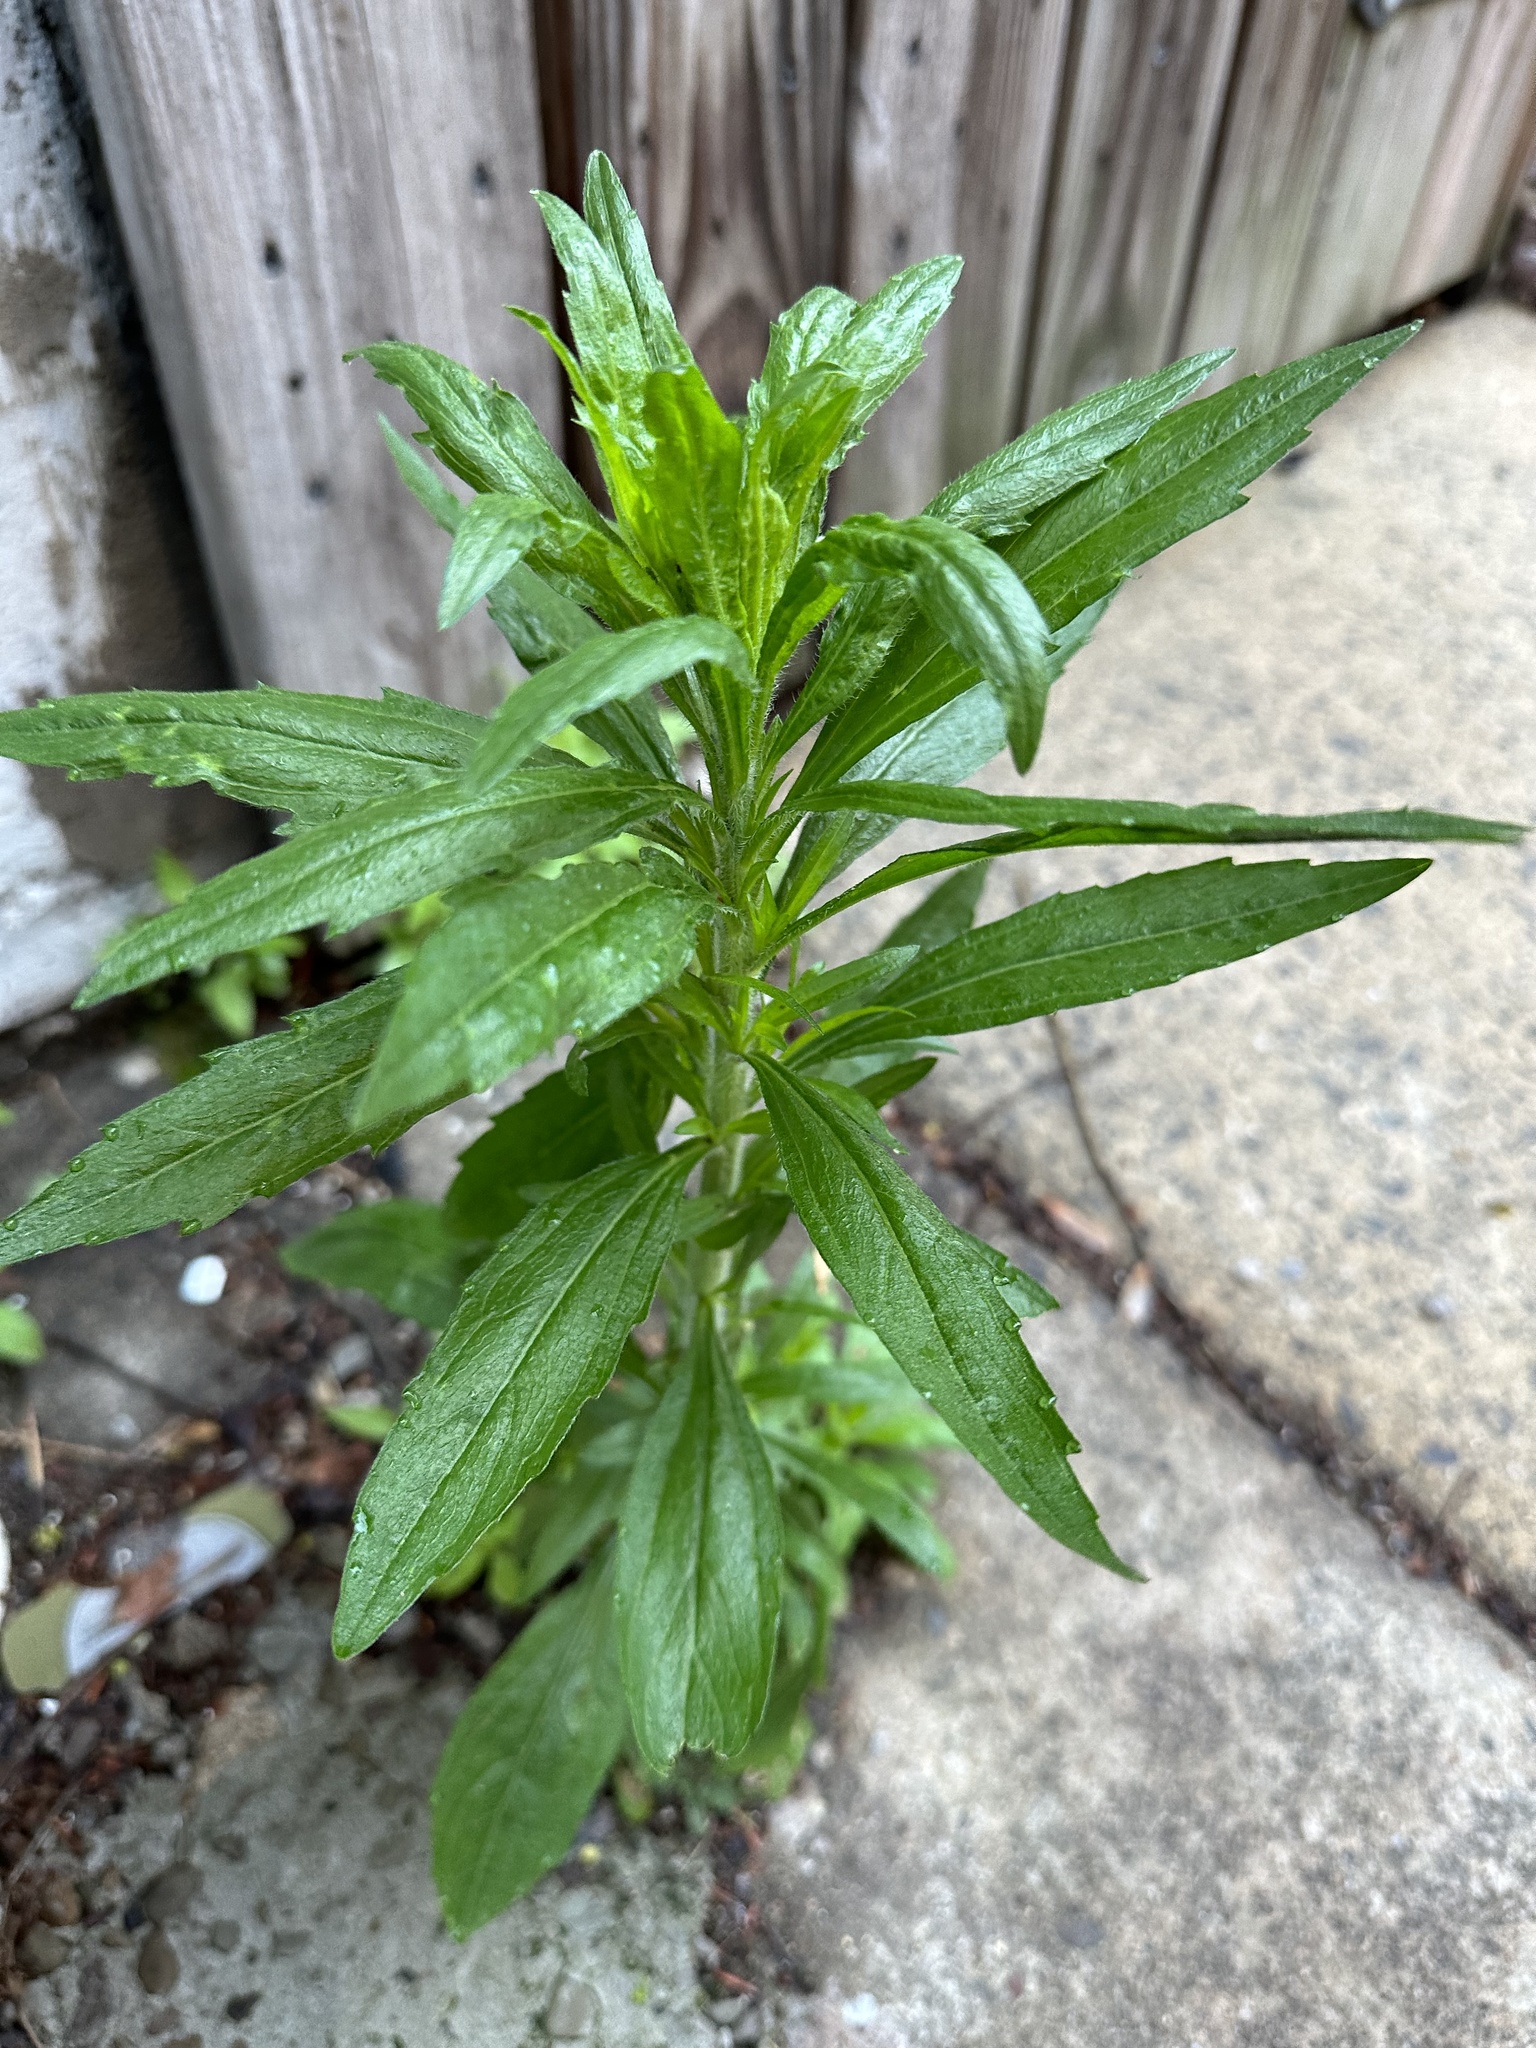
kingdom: Plantae
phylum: Tracheophyta
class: Magnoliopsida
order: Asterales
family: Asteraceae
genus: Erigeron
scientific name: Erigeron canadensis
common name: Canadian fleabane
